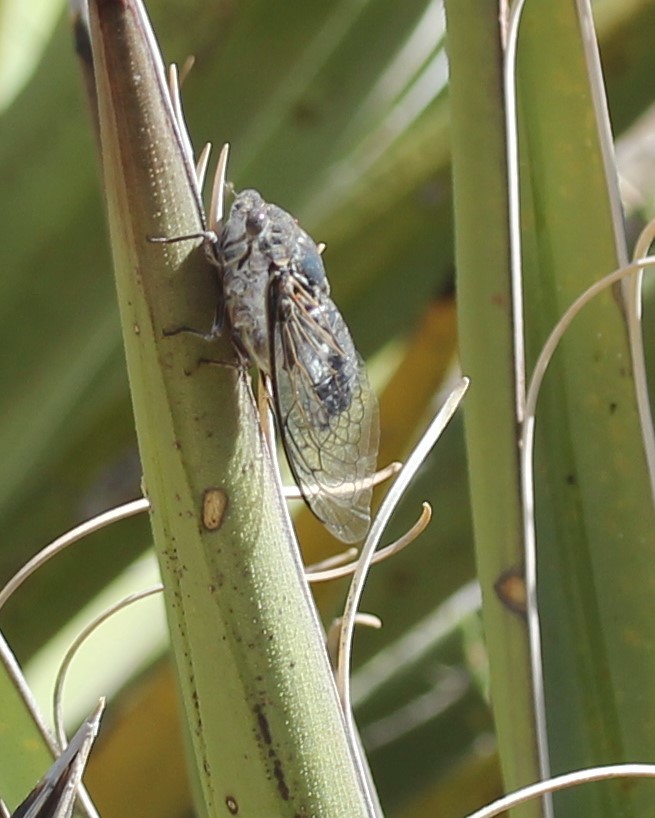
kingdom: Animalia
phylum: Arthropoda
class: Insecta
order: Hemiptera
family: Cicadidae
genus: Cacama
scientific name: Cacama valvata
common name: Cactus dodger
